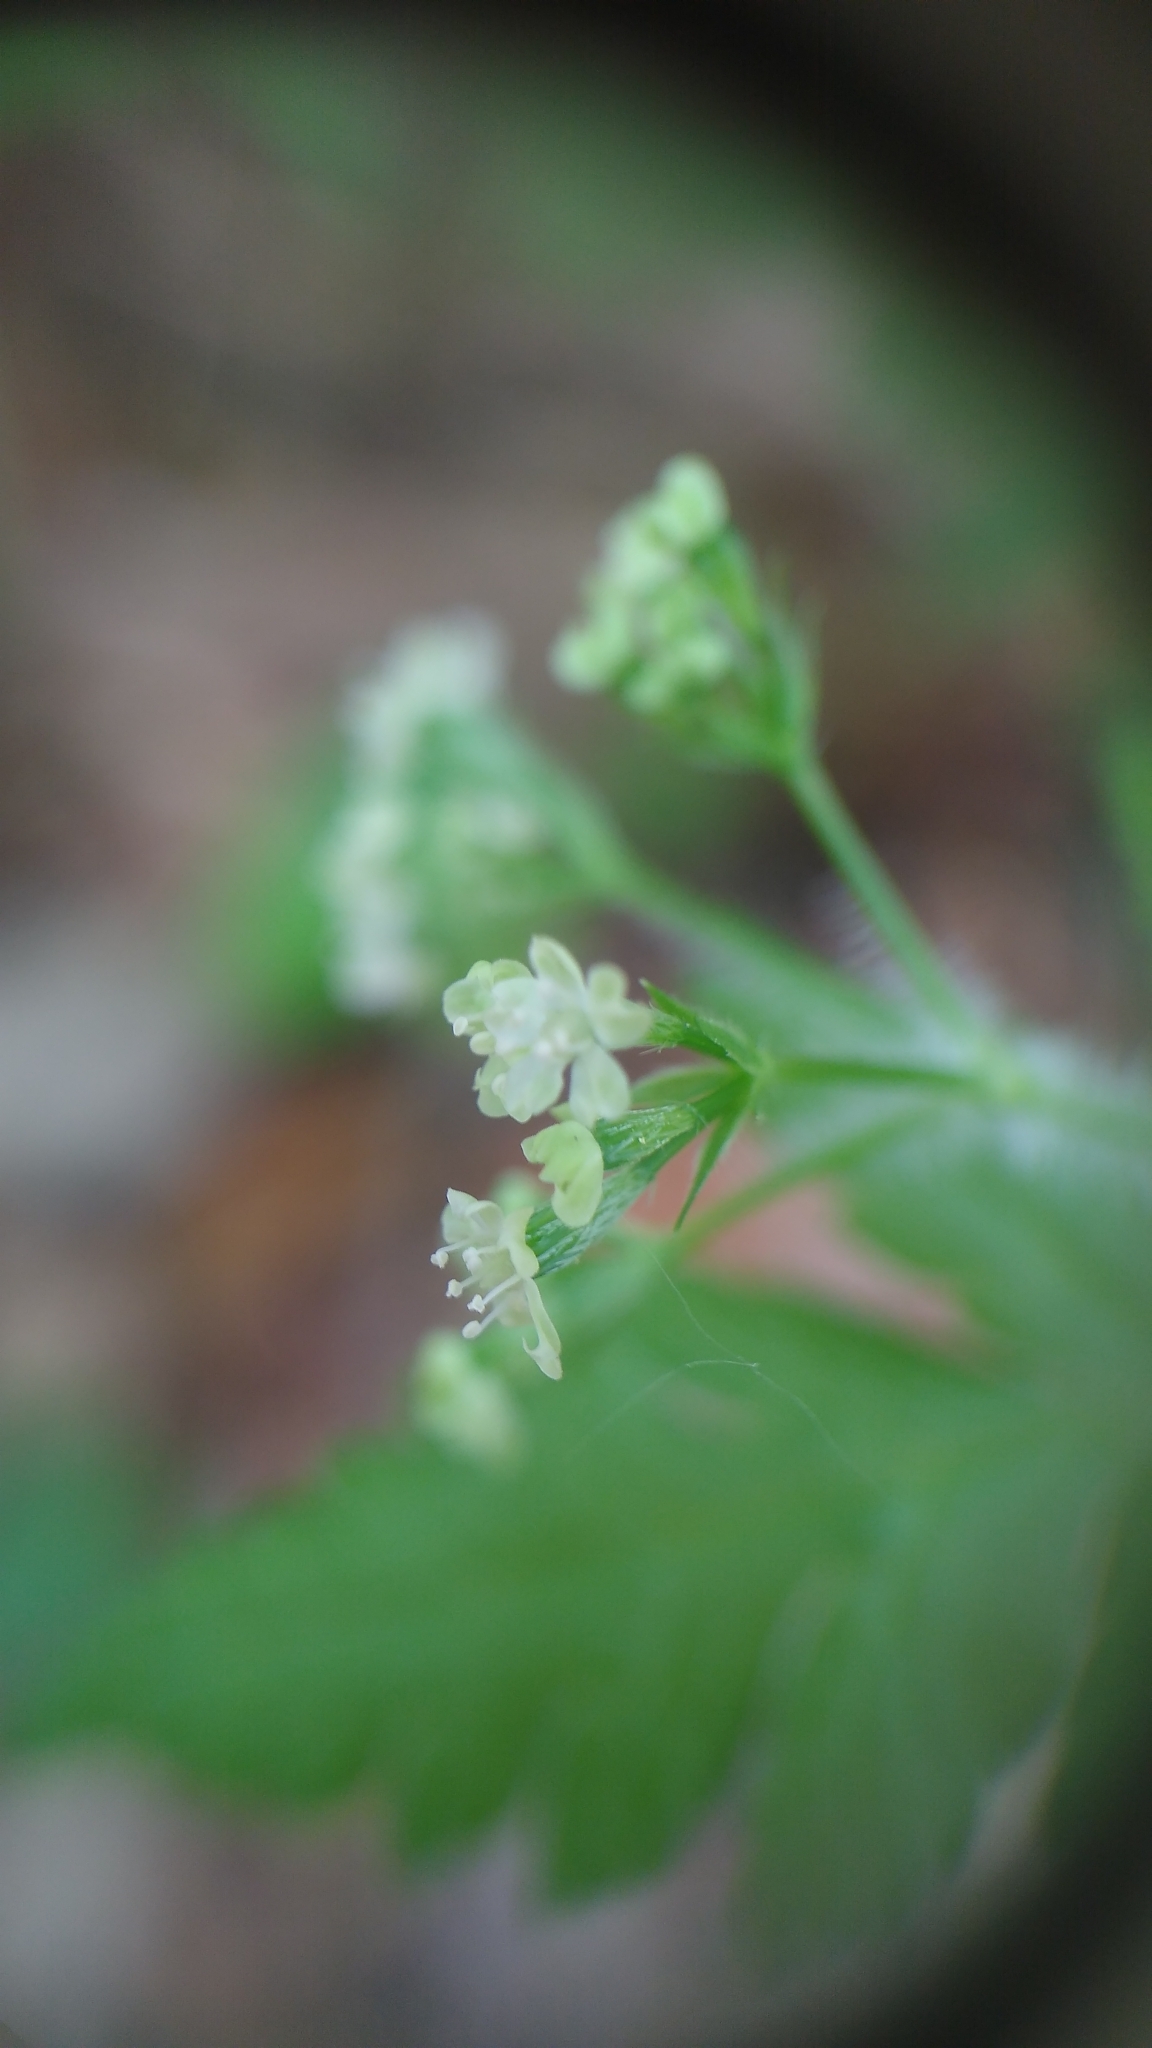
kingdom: Plantae
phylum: Tracheophyta
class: Magnoliopsida
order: Apiales
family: Apiaceae
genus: Osmorhiza
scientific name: Osmorhiza claytonii
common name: Hairy sweet cicely
